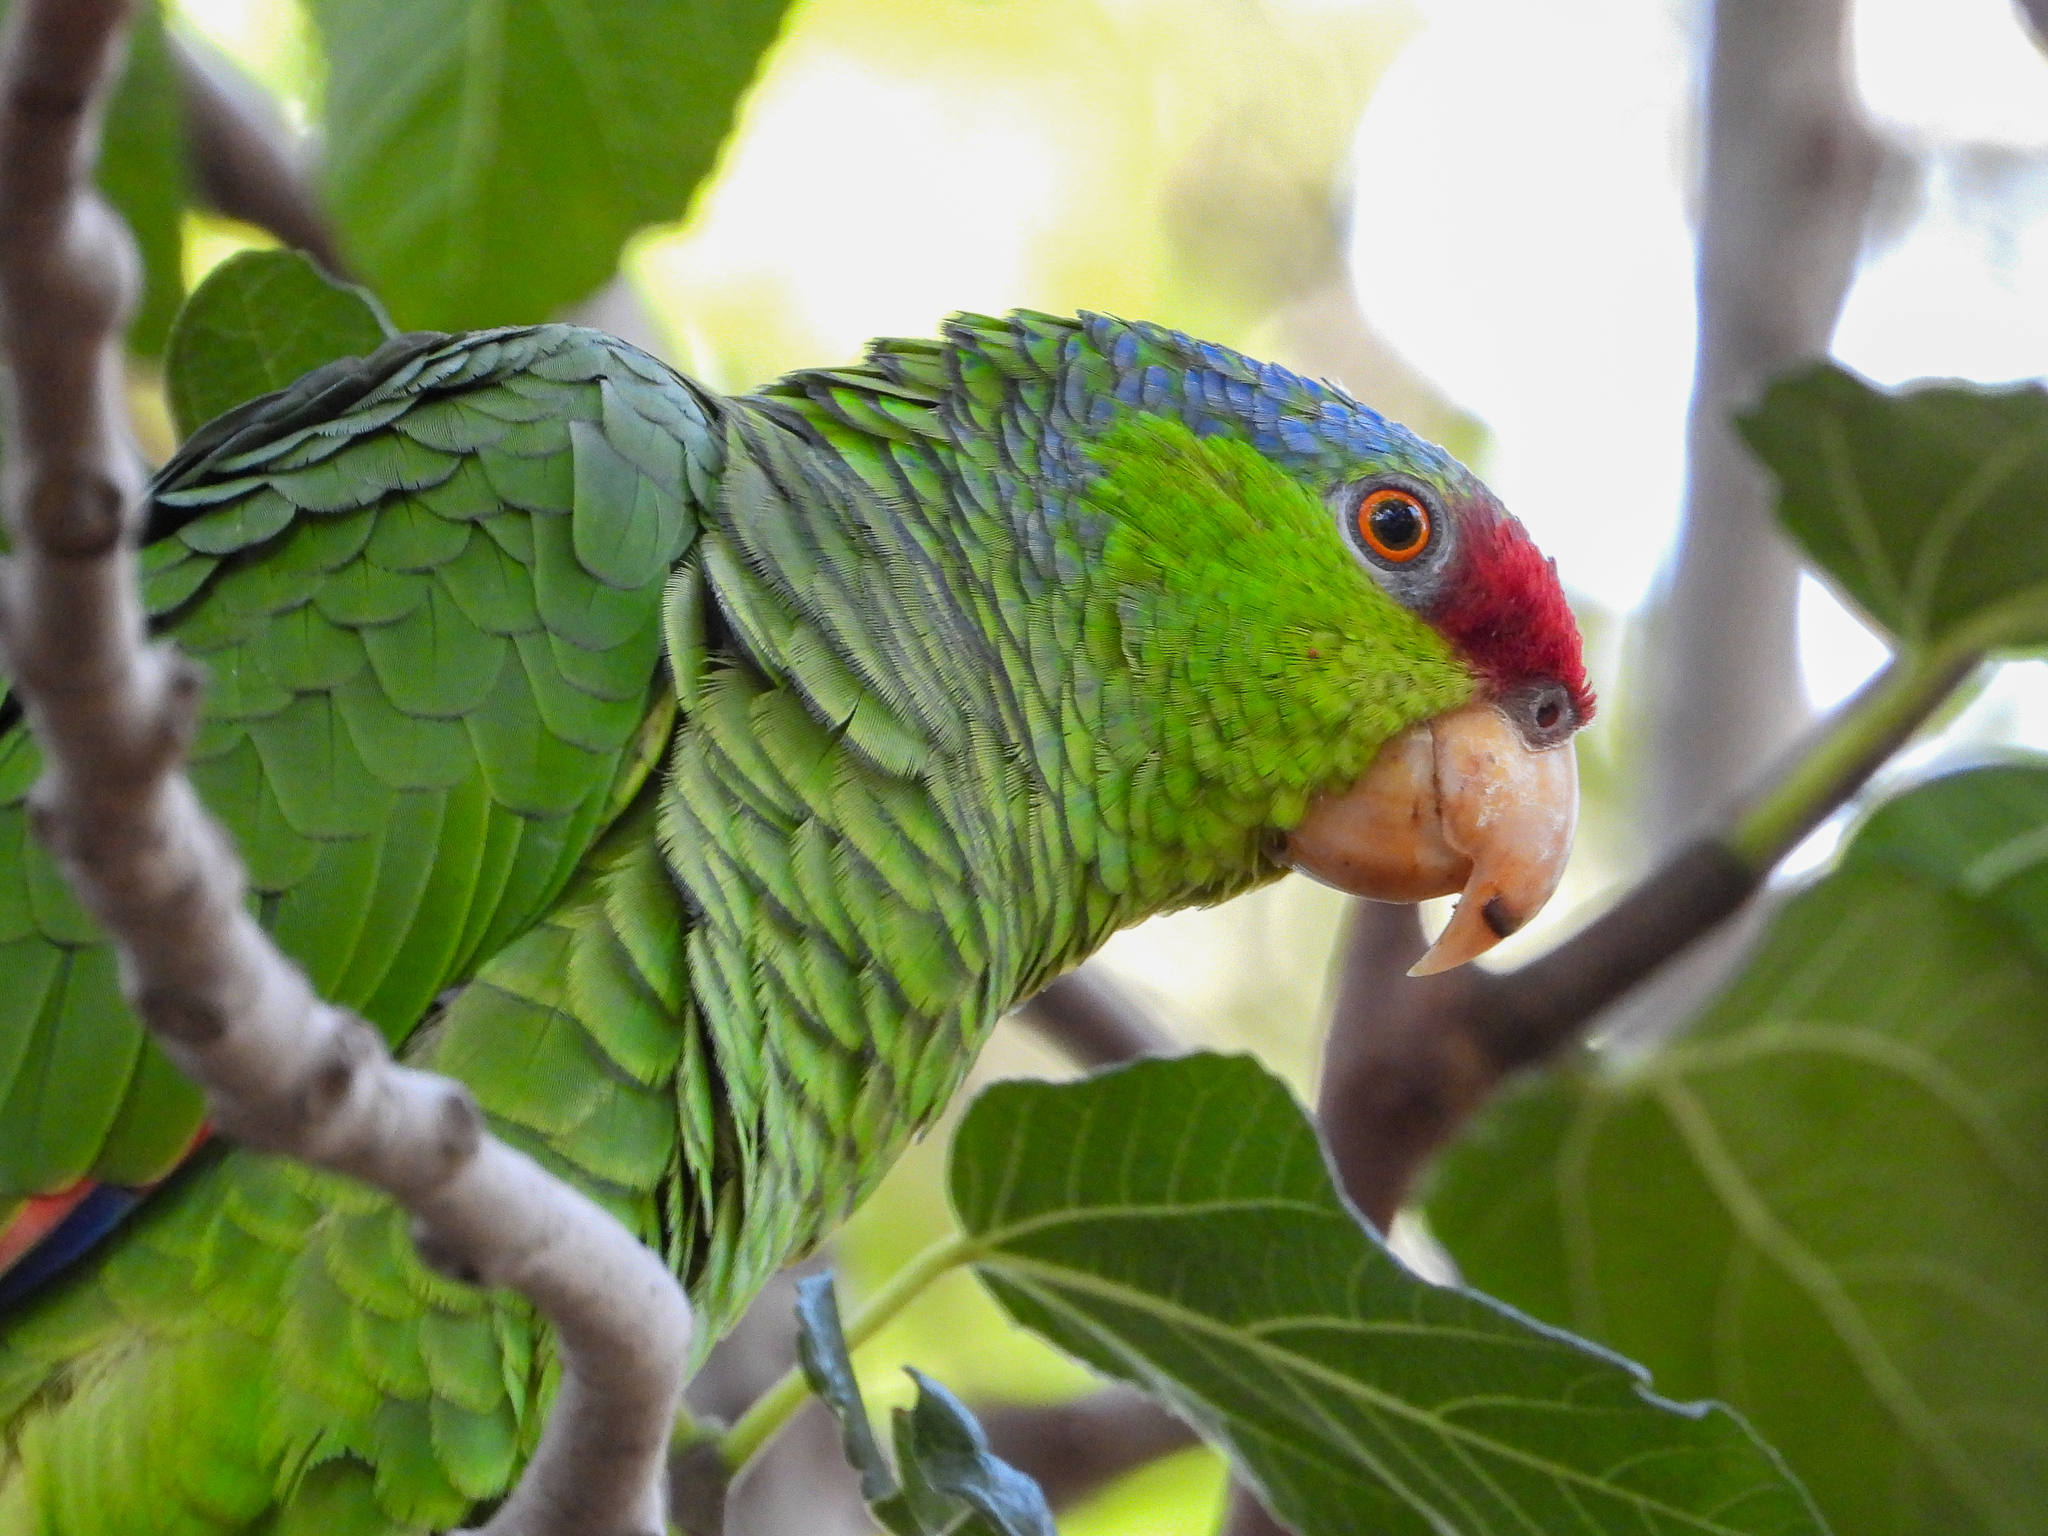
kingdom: Animalia
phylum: Chordata
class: Aves
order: Psittaciformes
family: Psittacidae
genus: Amazona
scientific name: Amazona
